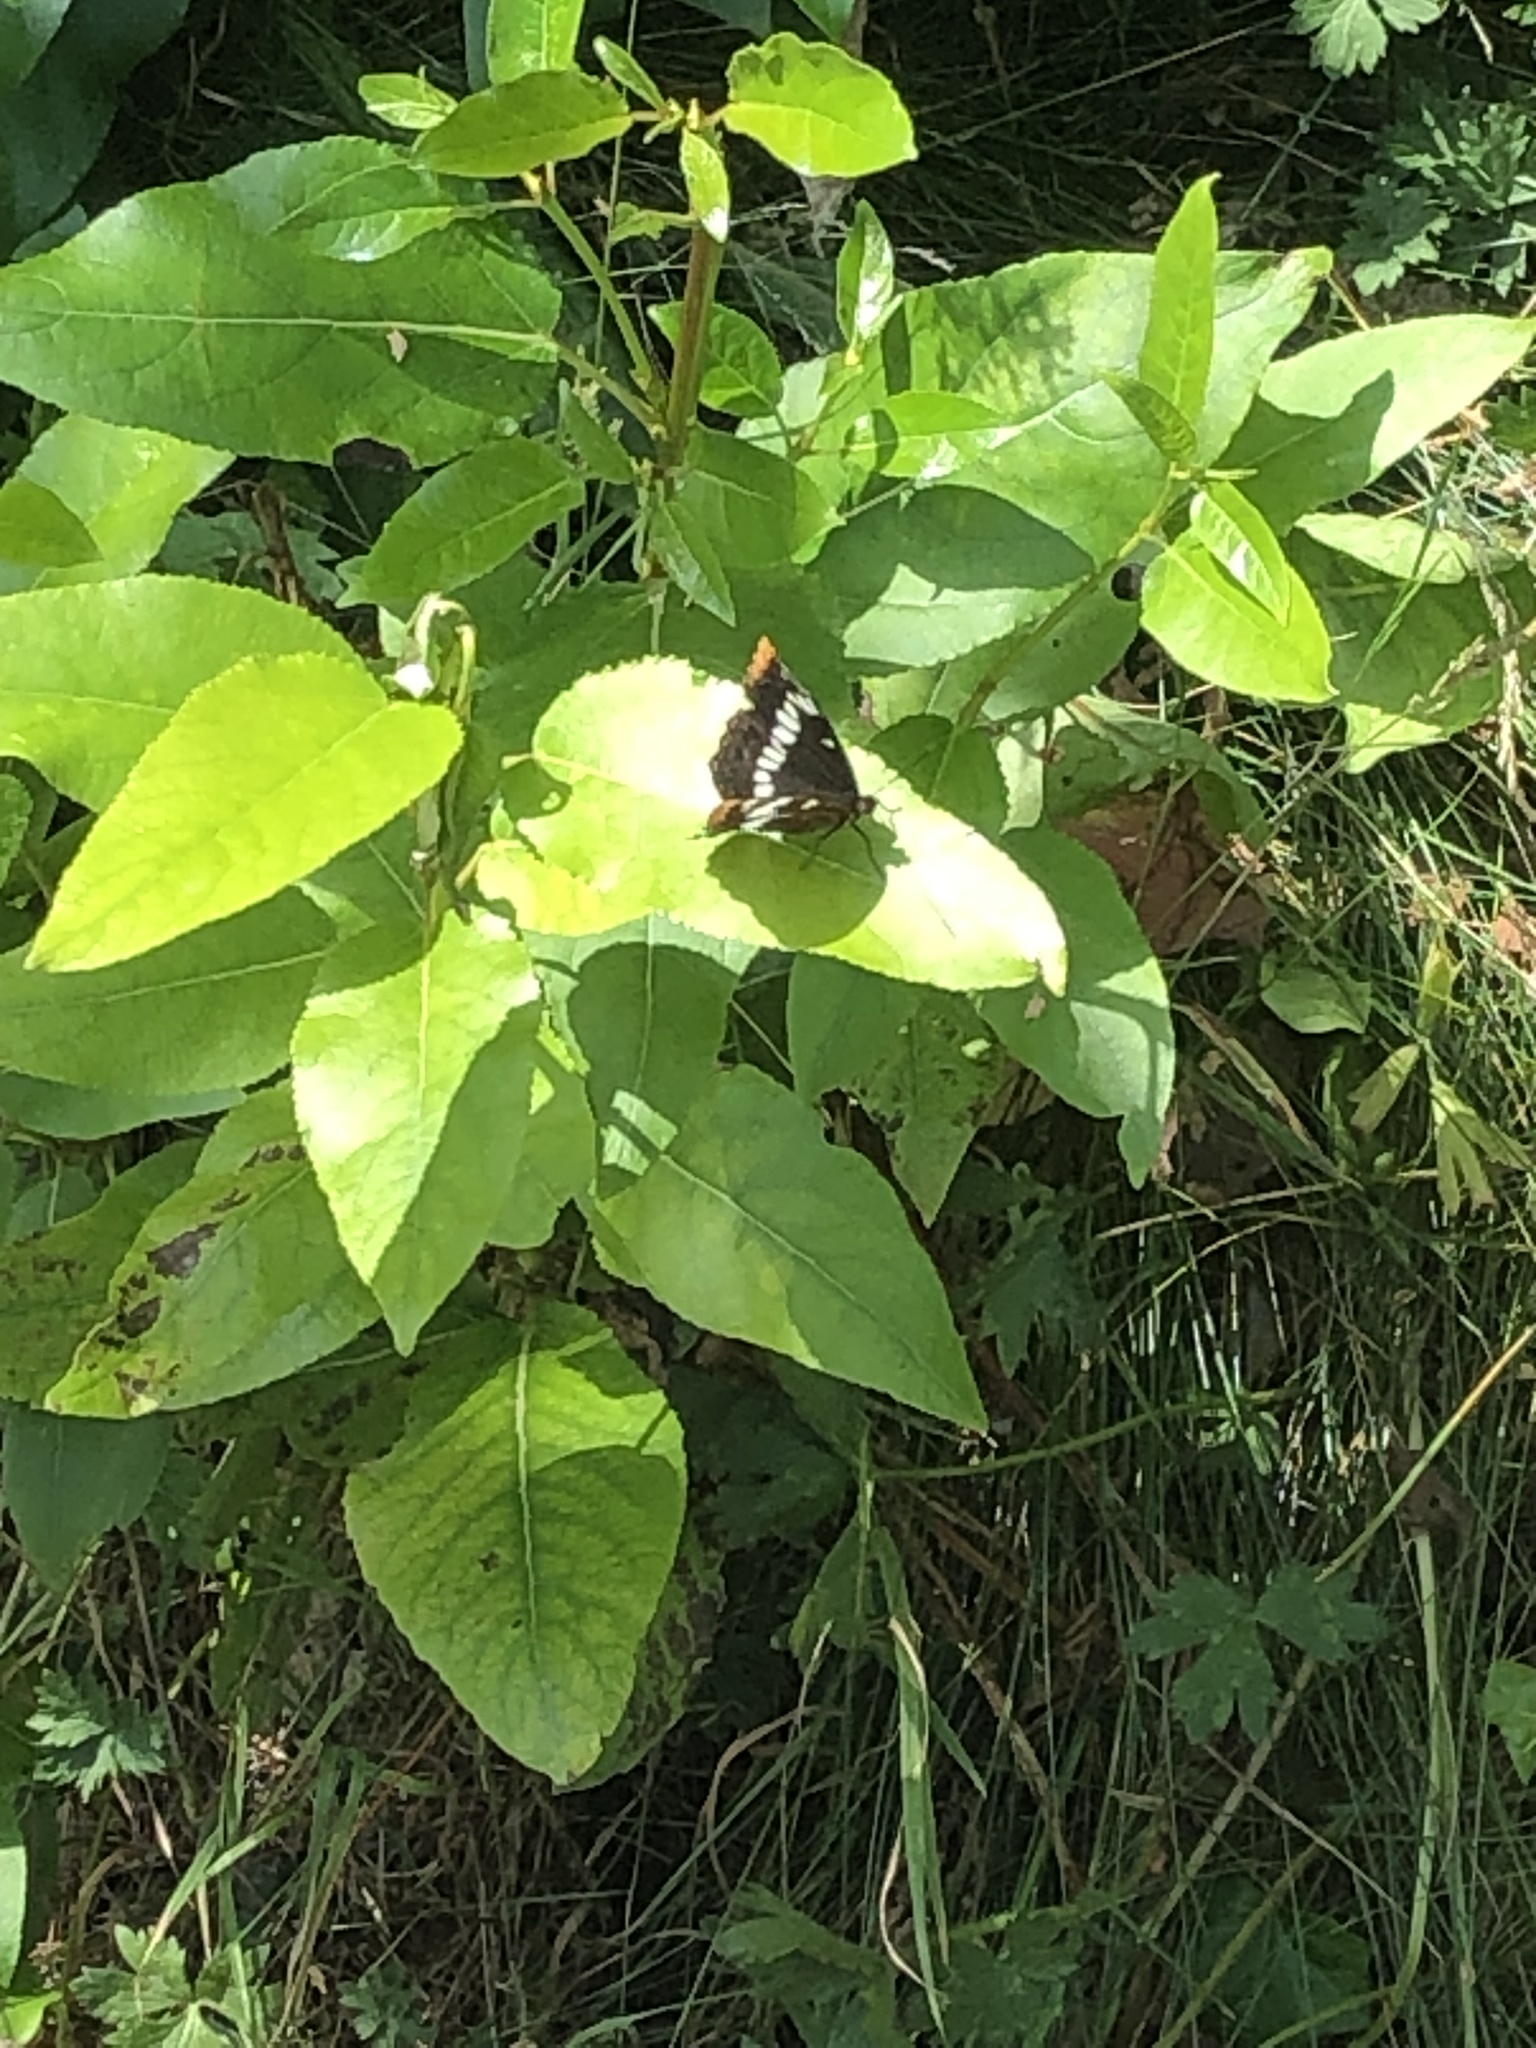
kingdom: Animalia
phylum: Arthropoda
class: Insecta
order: Lepidoptera
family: Nymphalidae
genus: Limenitis
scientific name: Limenitis lorquini
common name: Lorquin's admiral
